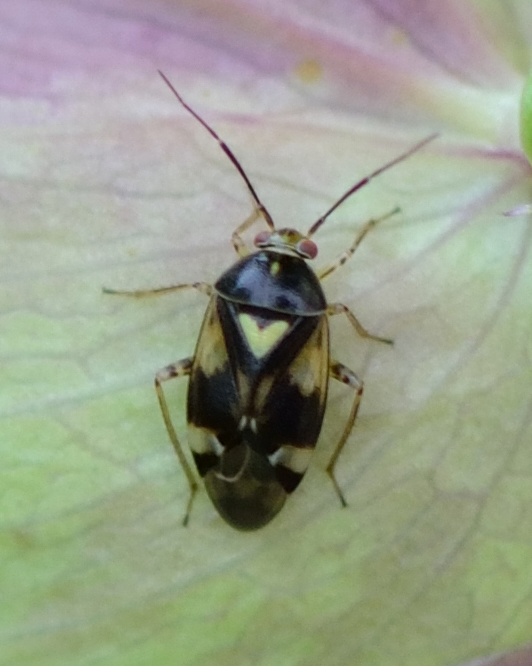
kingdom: Animalia
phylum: Arthropoda
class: Insecta
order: Hemiptera
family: Miridae
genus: Liocoris
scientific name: Liocoris tripustulatus
